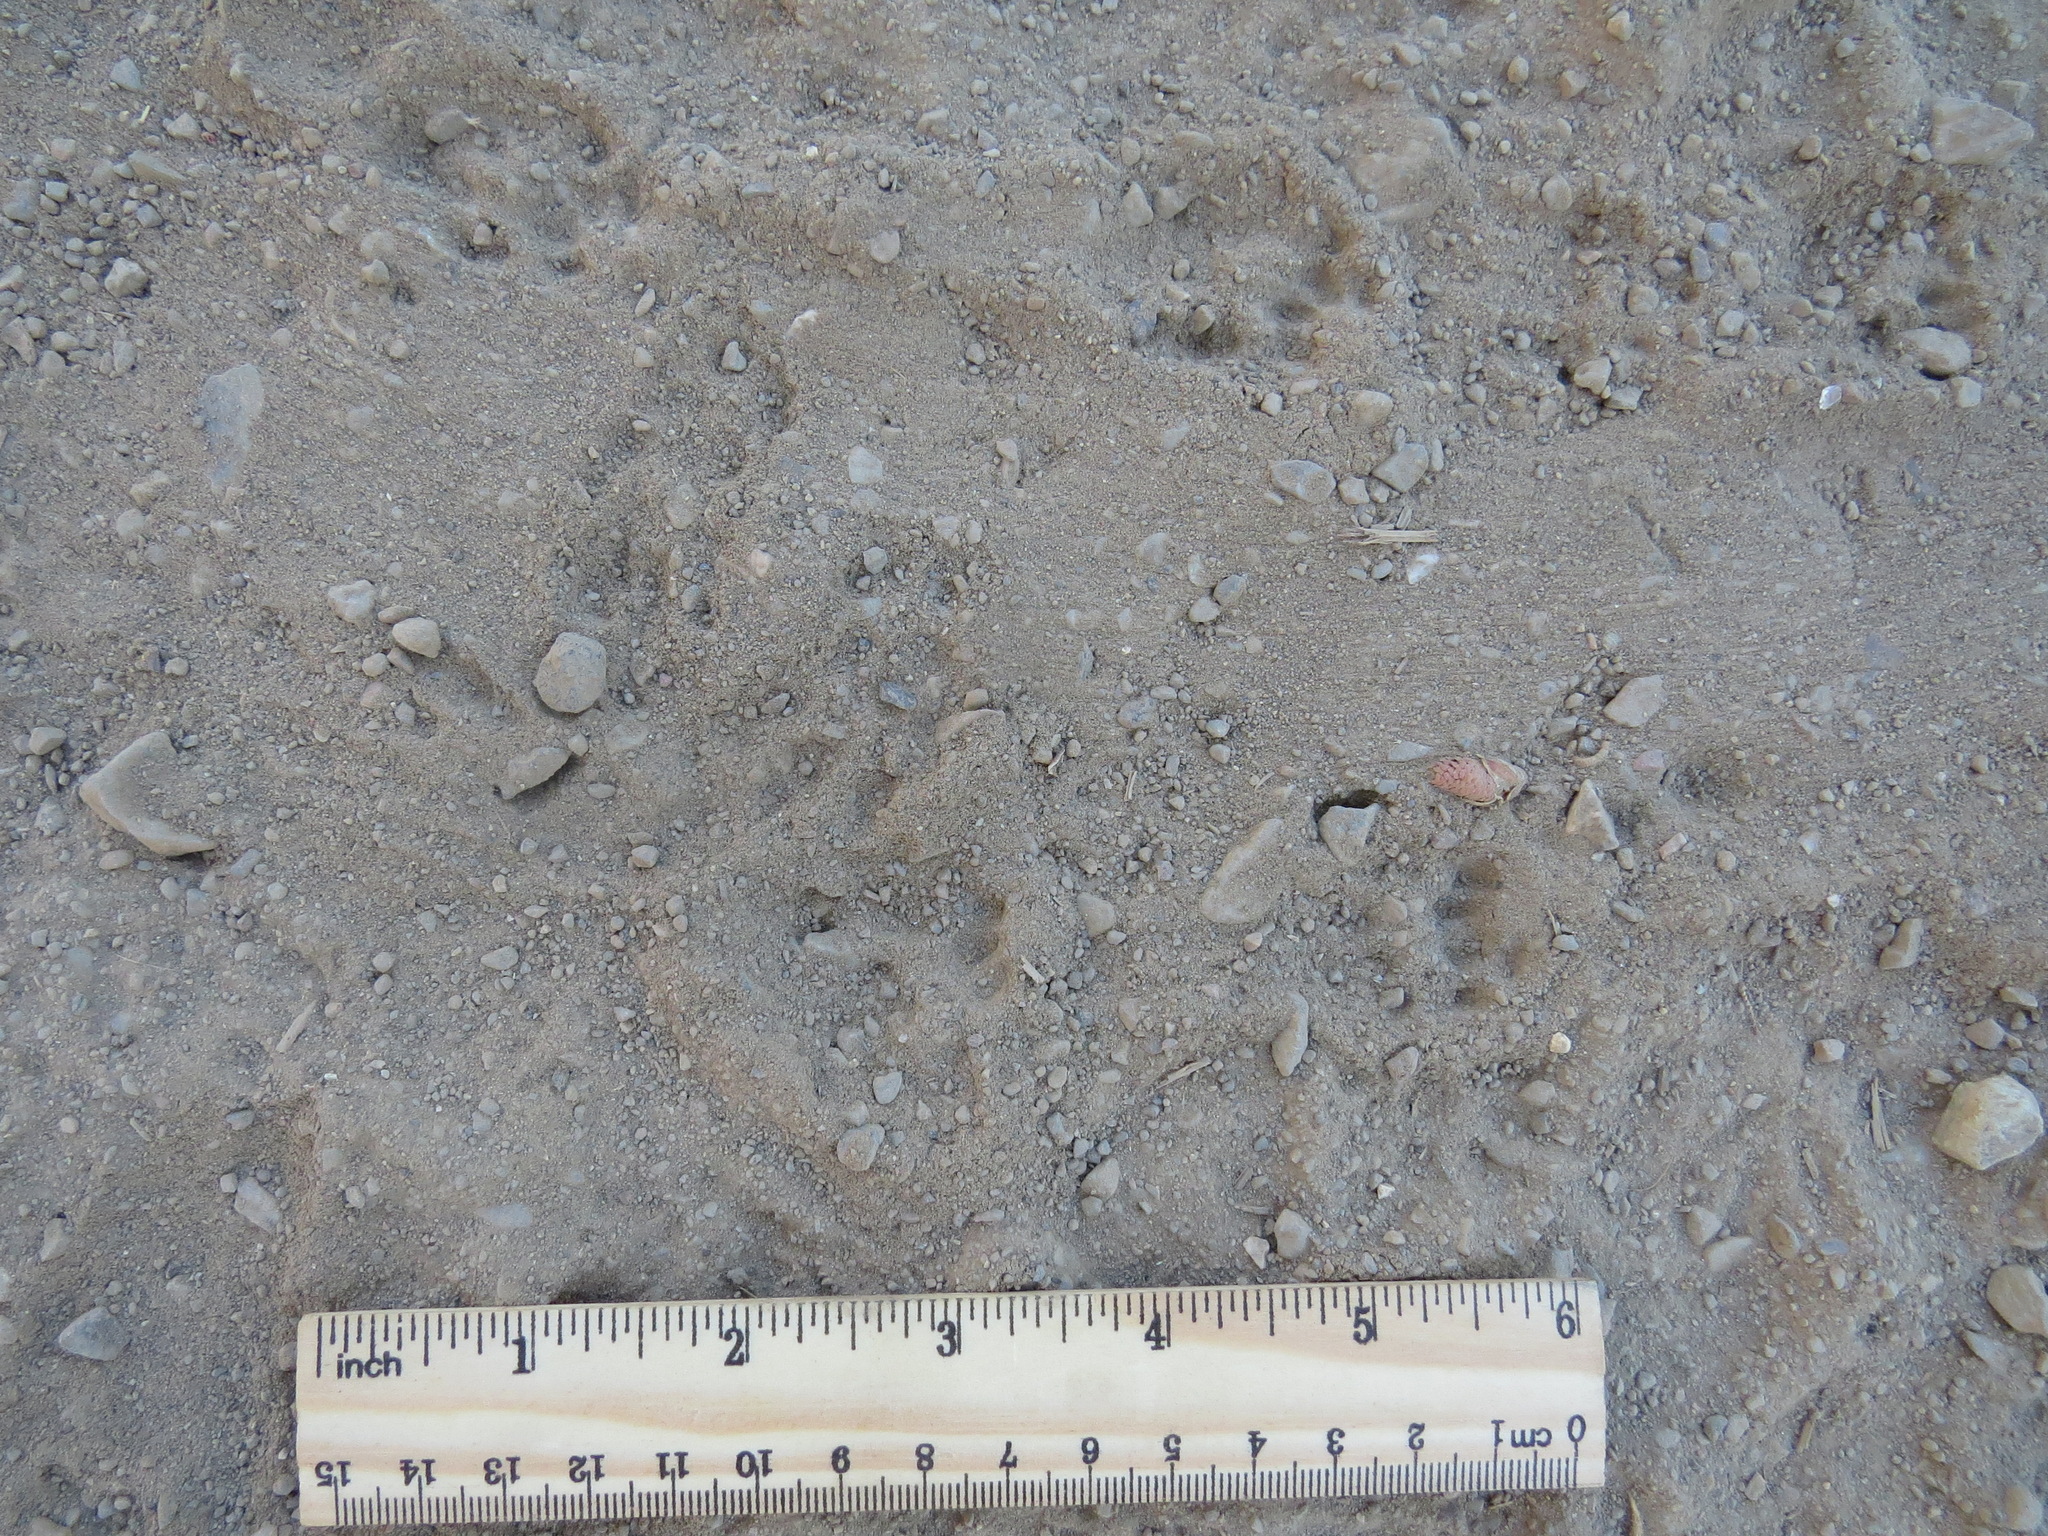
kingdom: Animalia
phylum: Chordata
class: Mammalia
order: Rodentia
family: Sciuridae
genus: Otospermophilus
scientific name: Otospermophilus beecheyi
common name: California ground squirrel
